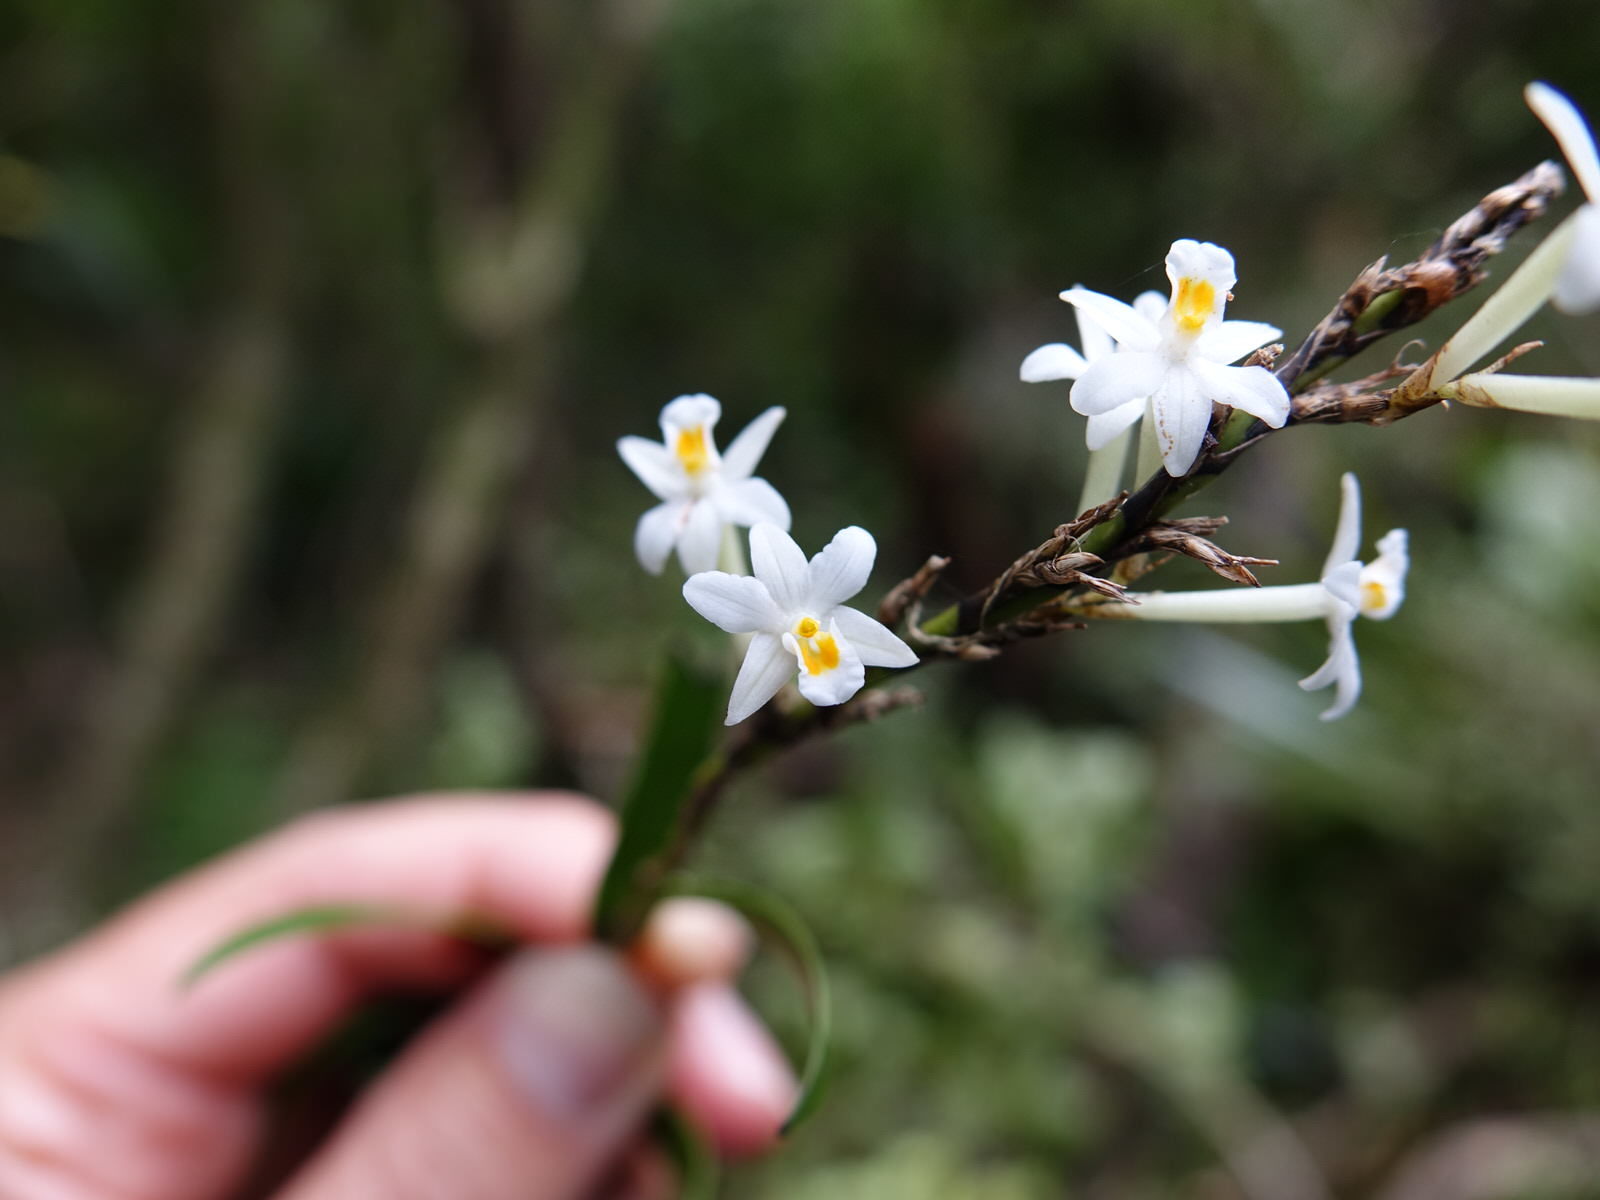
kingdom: Plantae
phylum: Tracheophyta
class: Liliopsida
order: Asparagales
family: Orchidaceae
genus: Earina
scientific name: Earina autumnalis
